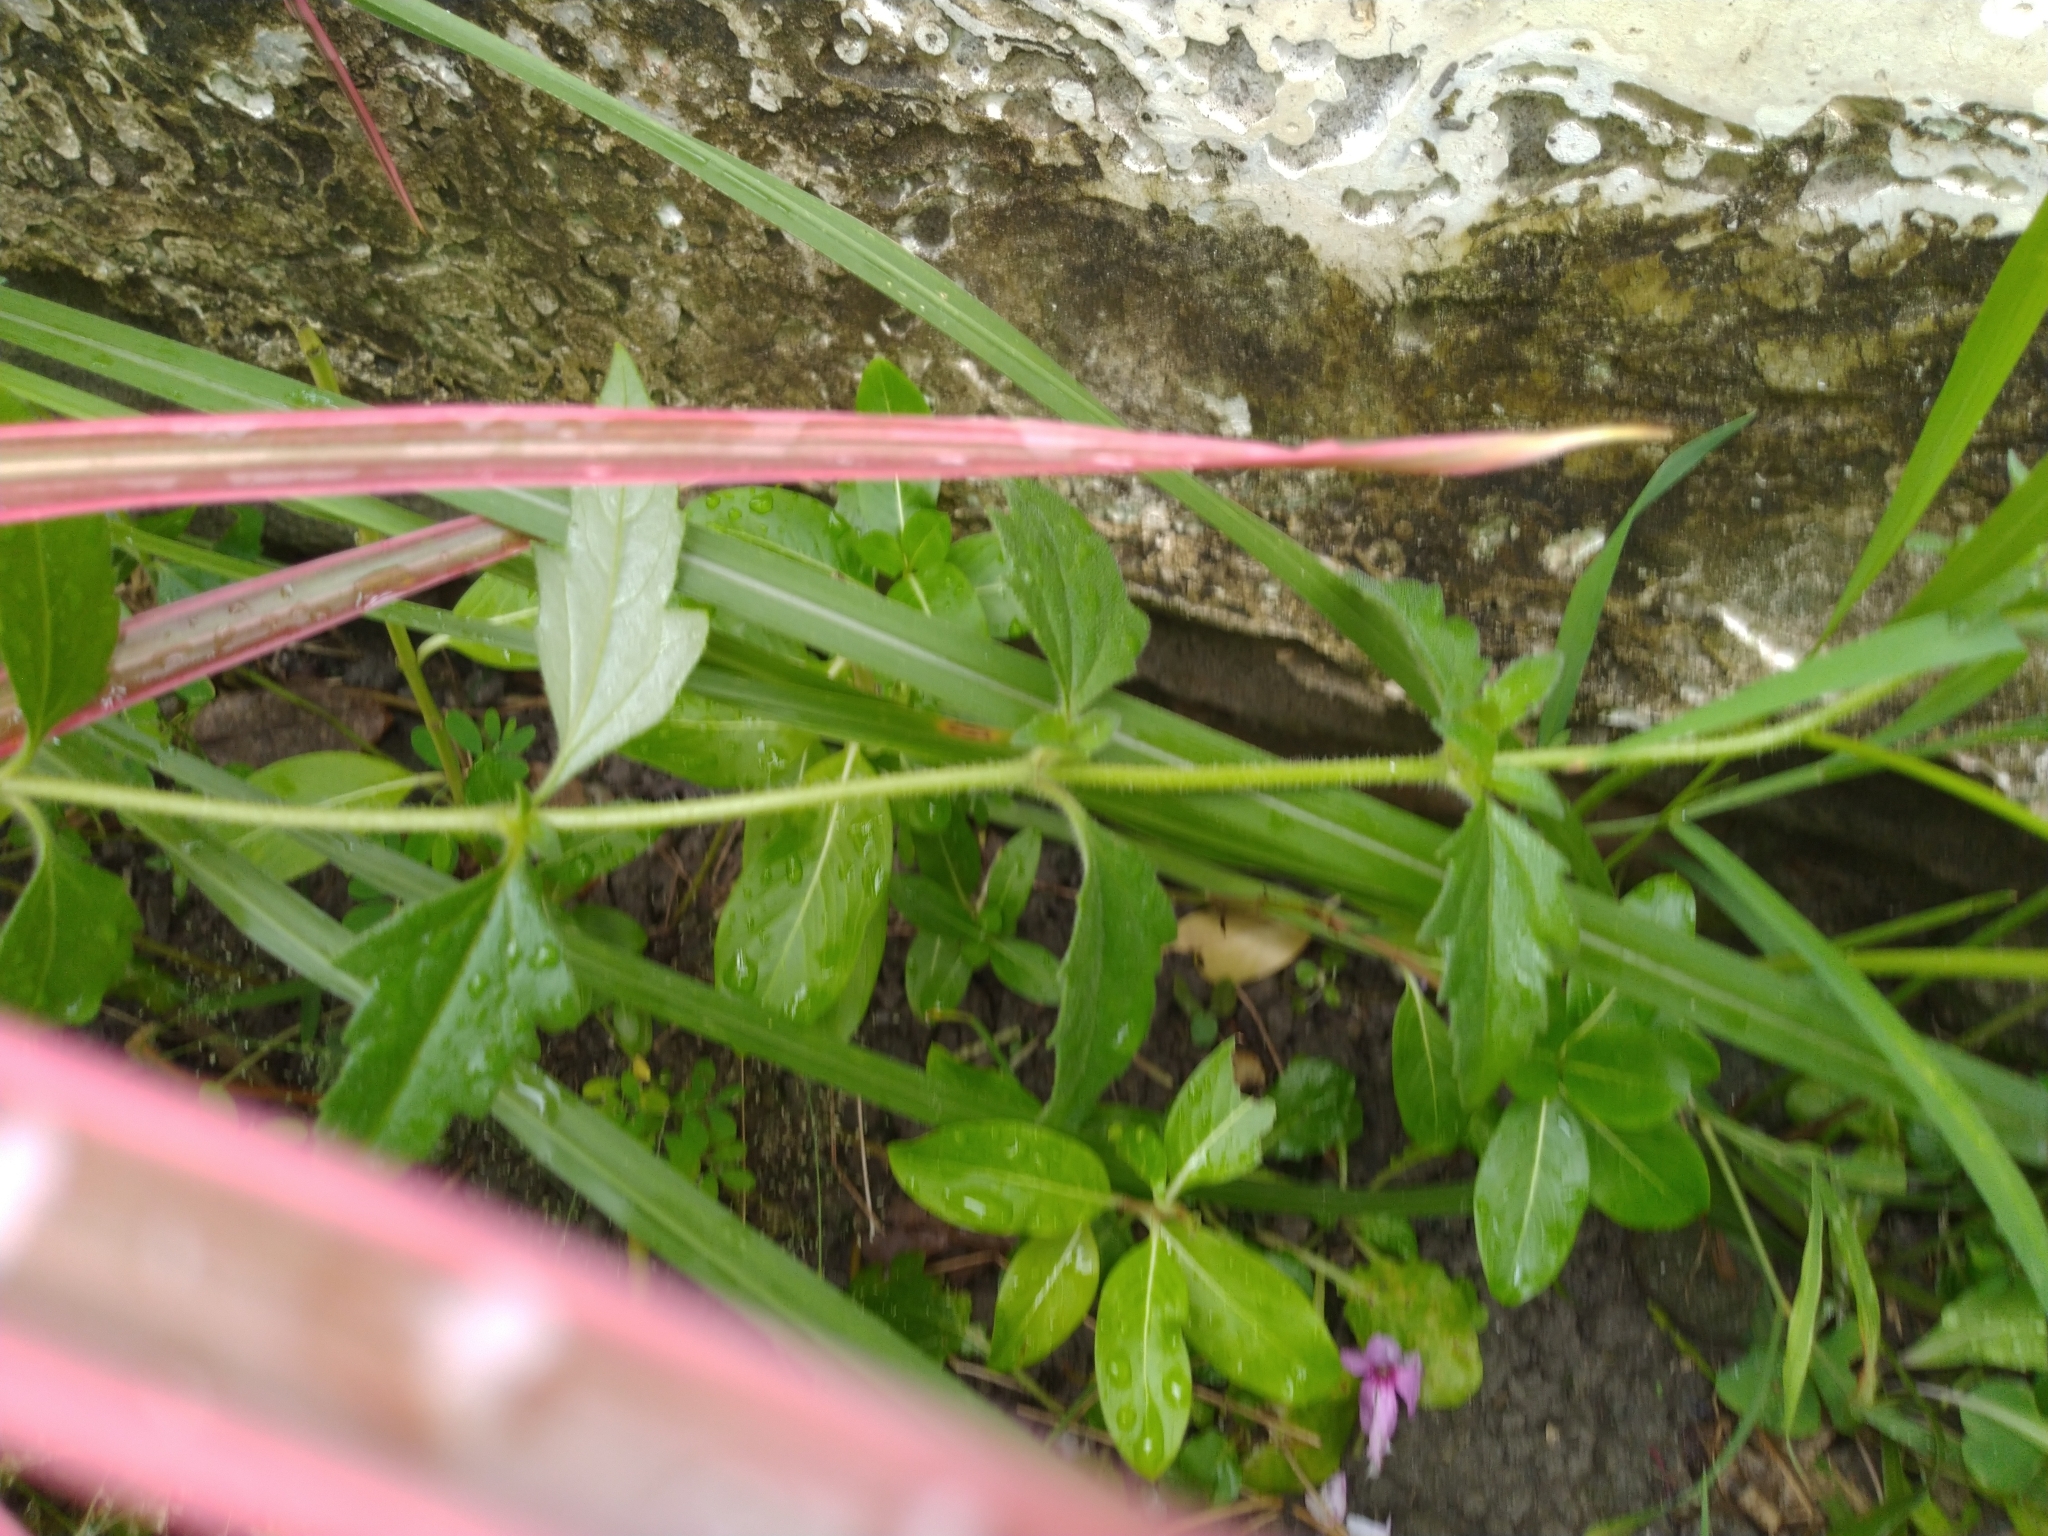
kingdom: Plantae
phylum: Tracheophyta
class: Magnoliopsida
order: Asterales
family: Asteraceae
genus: Tridax
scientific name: Tridax procumbens
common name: Coatbuttons
